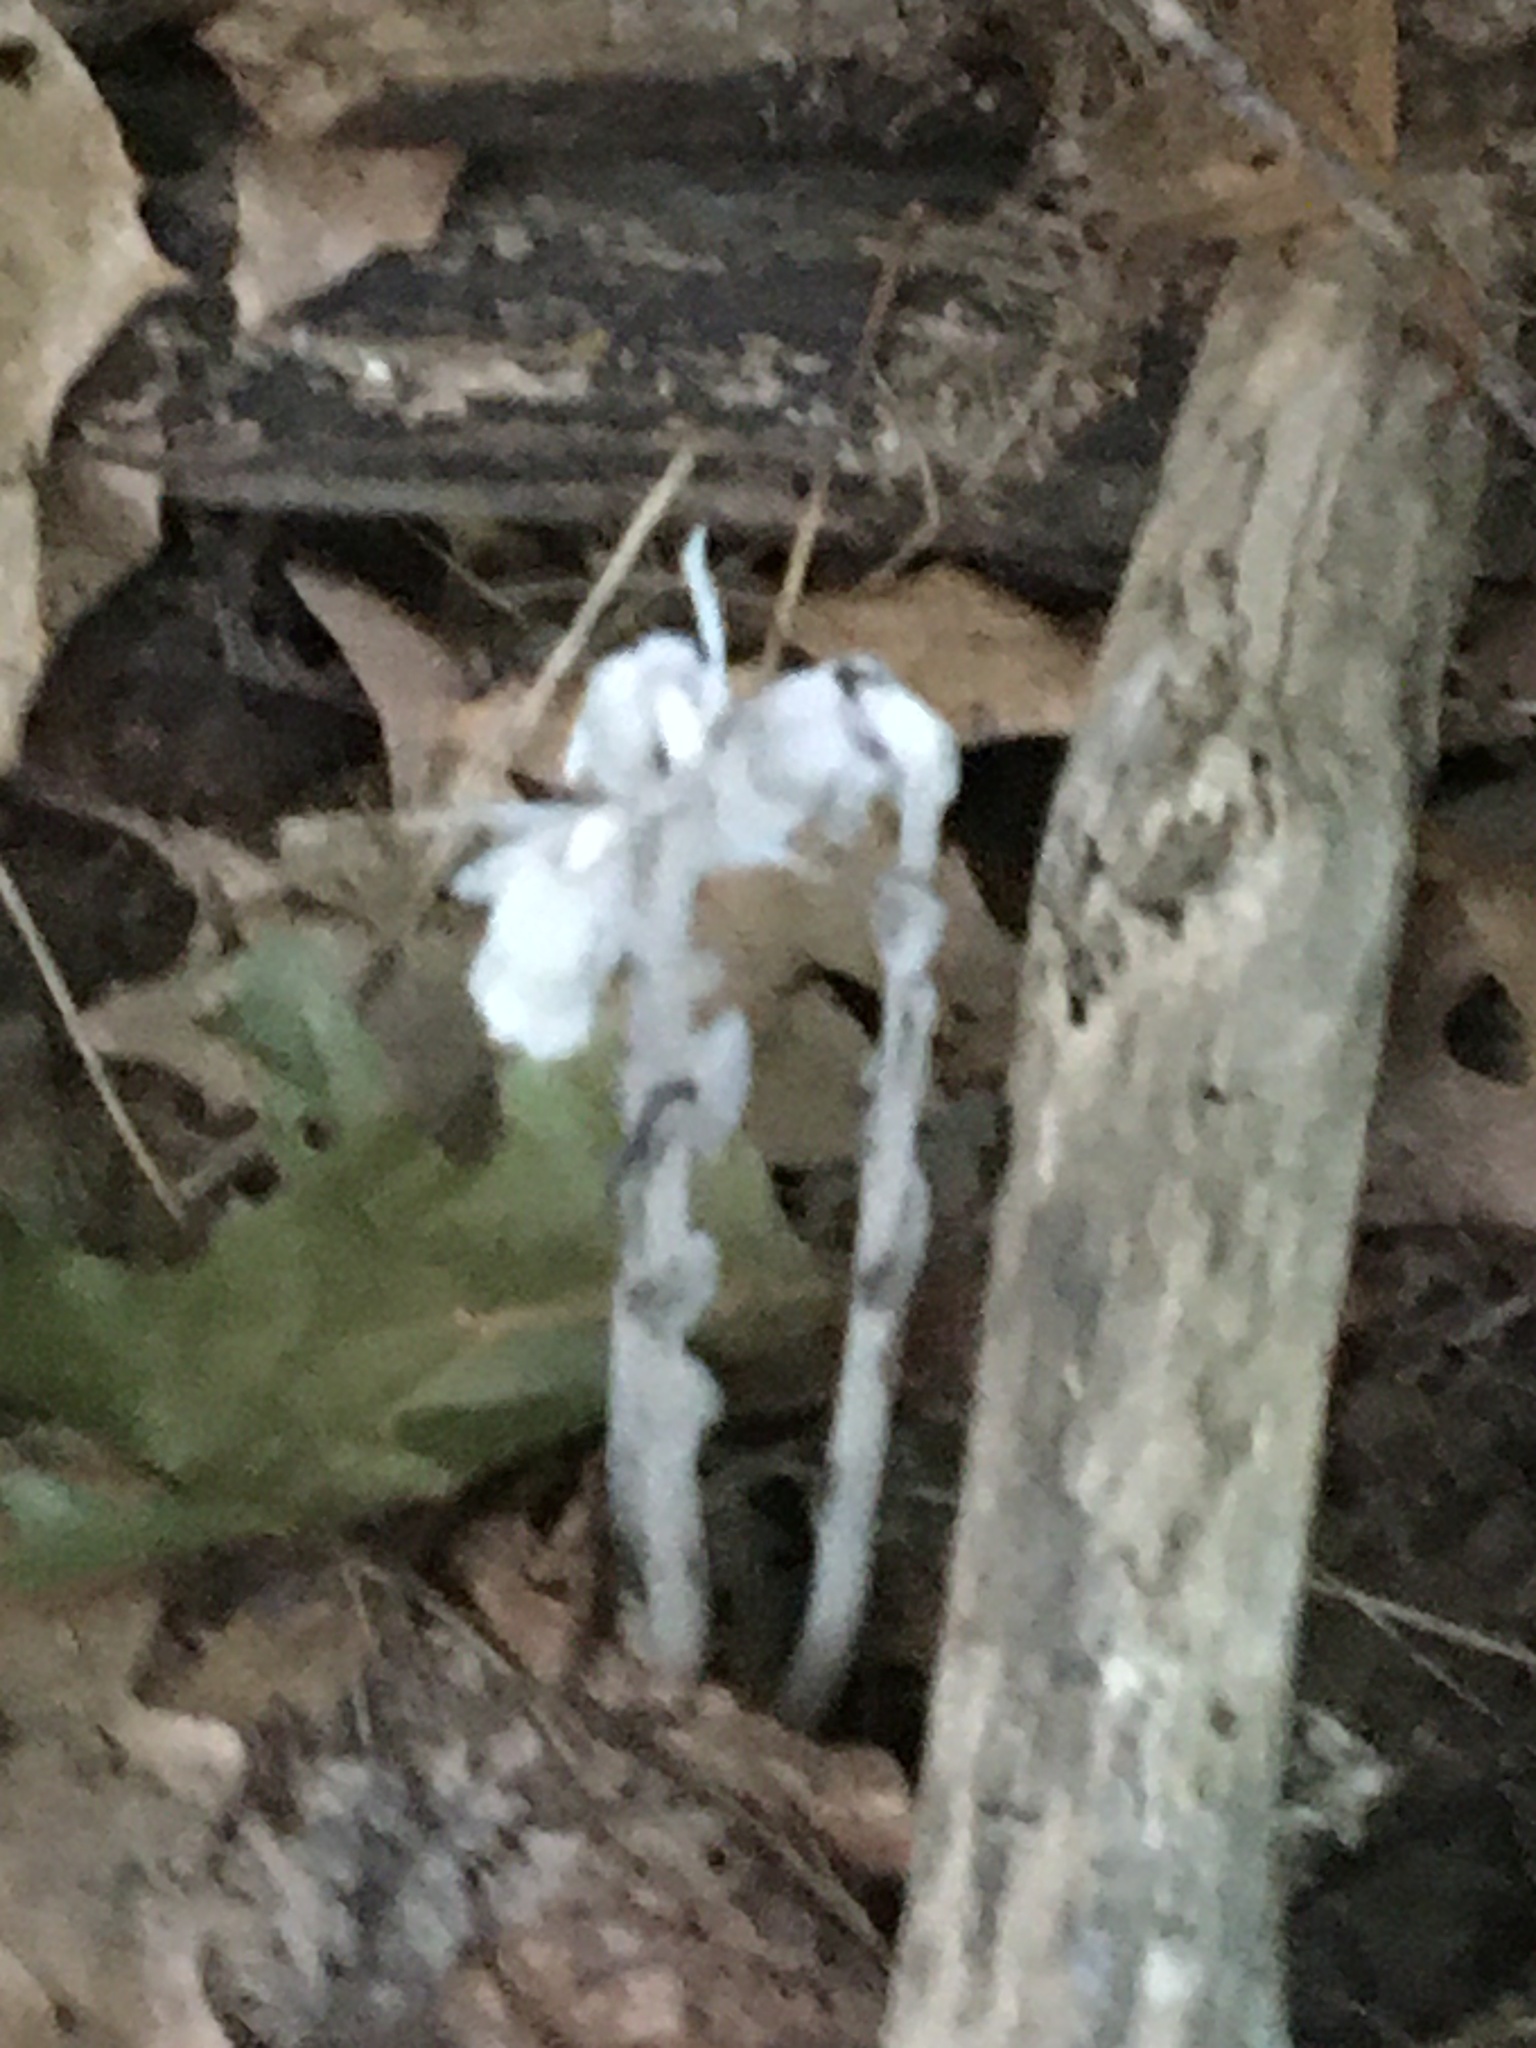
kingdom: Plantae
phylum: Tracheophyta
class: Magnoliopsida
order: Ericales
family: Ericaceae
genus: Monotropa
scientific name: Monotropa uniflora
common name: Convulsion root
